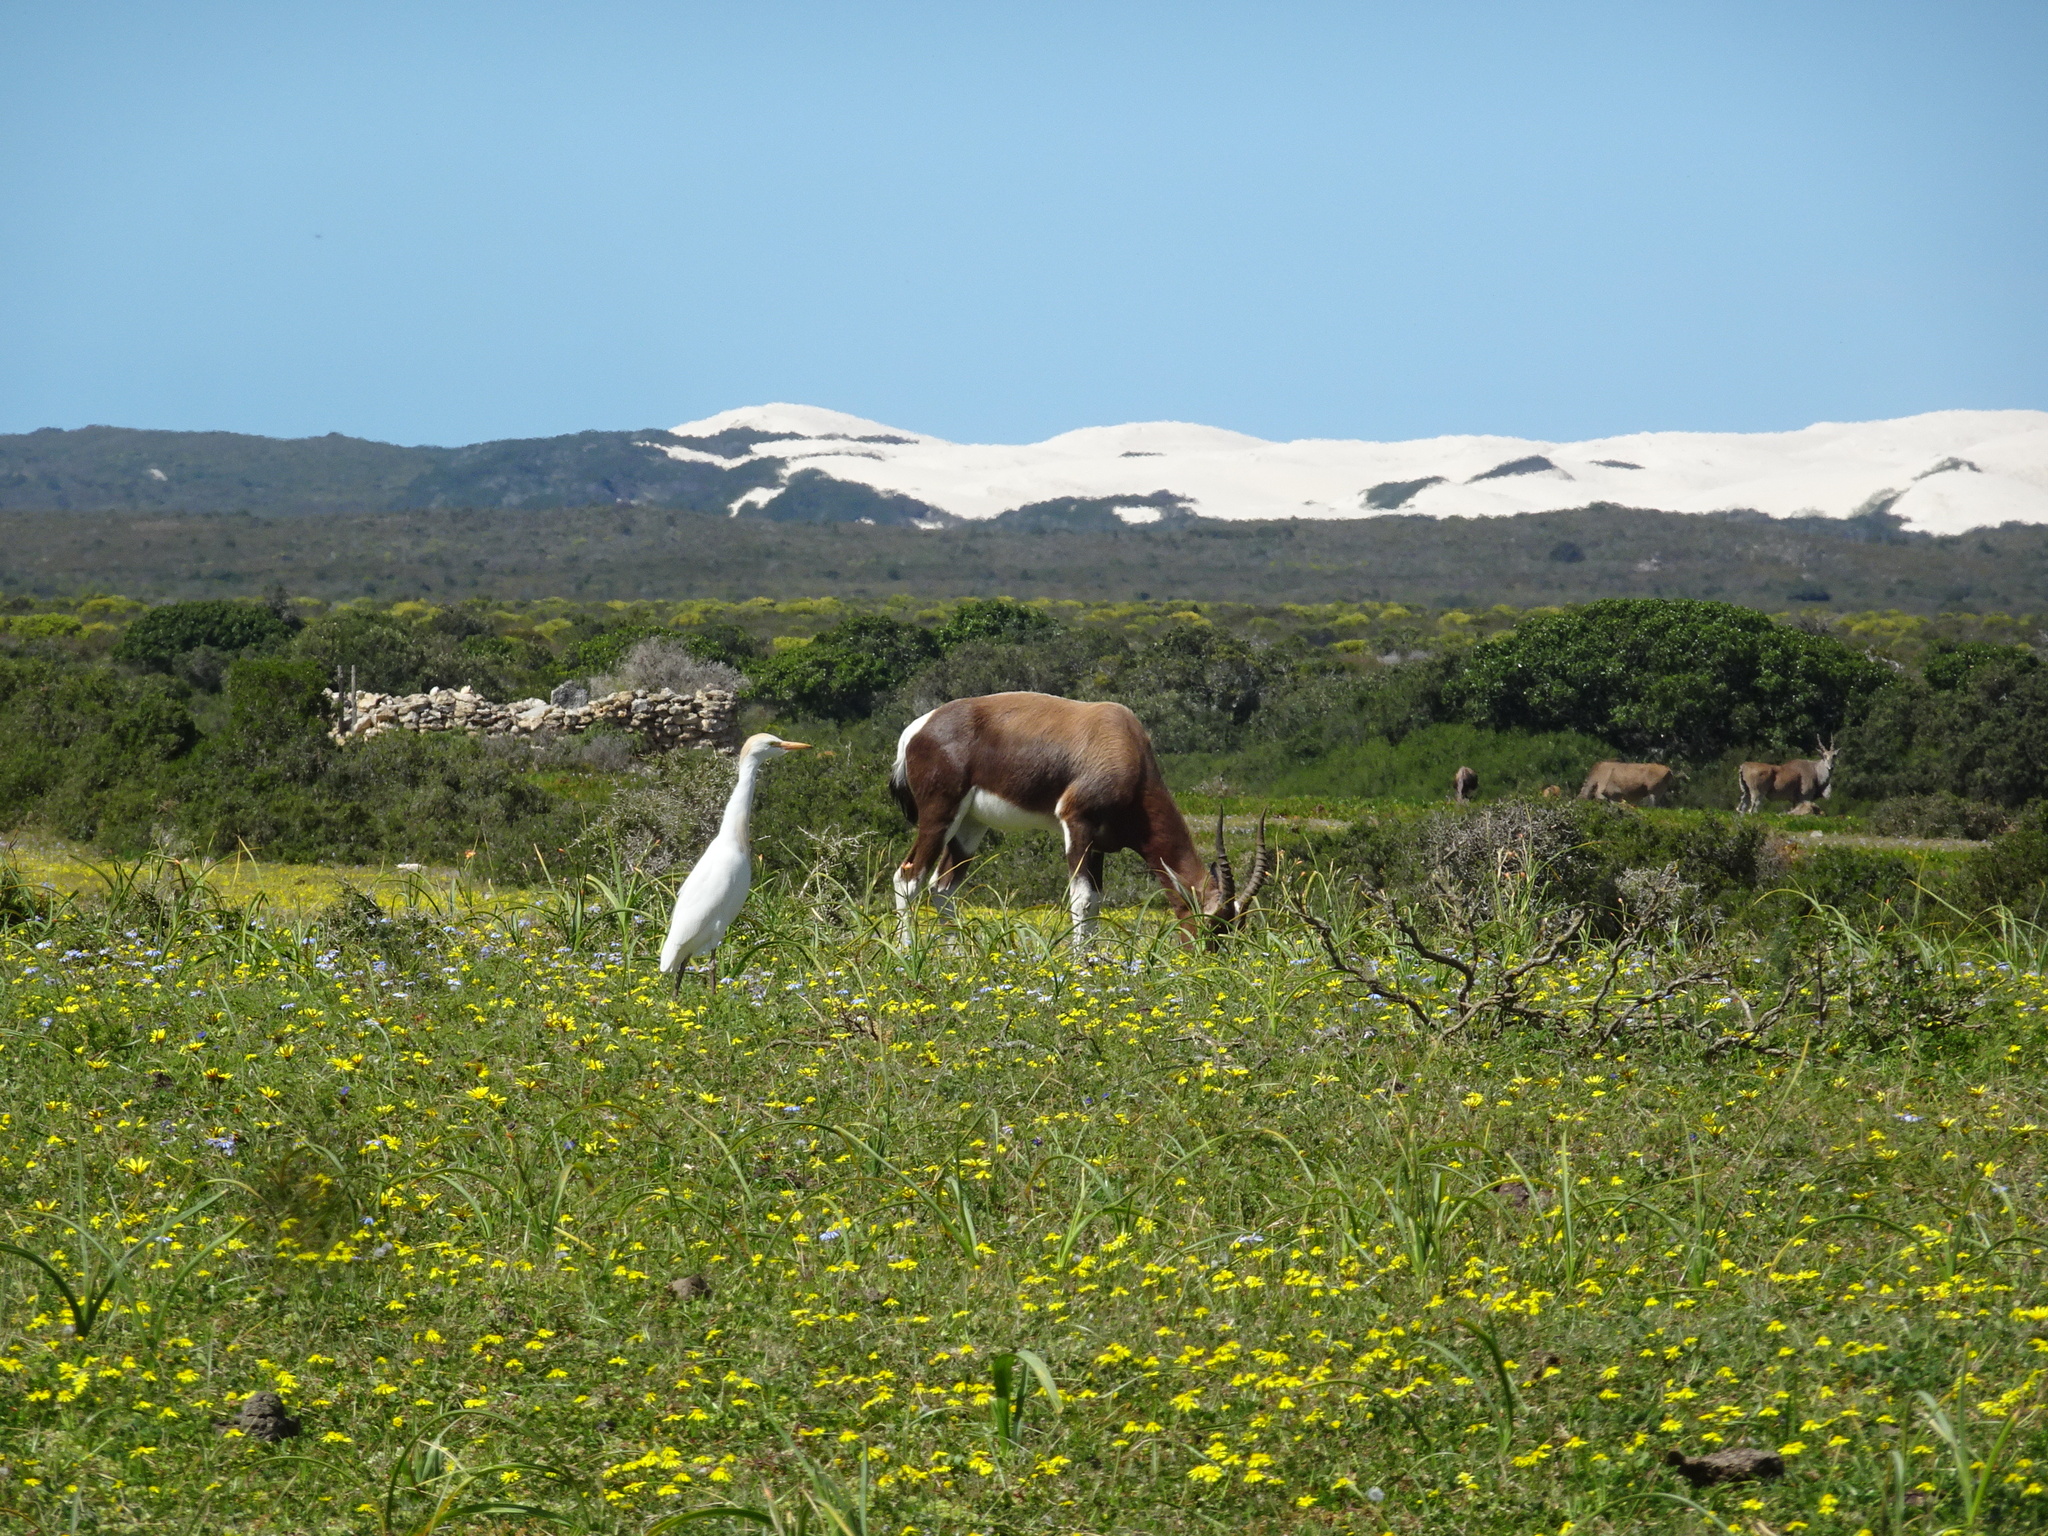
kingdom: Animalia
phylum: Chordata
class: Mammalia
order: Artiodactyla
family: Bovidae
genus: Damaliscus
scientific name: Damaliscus pygargus
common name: Bontebok
